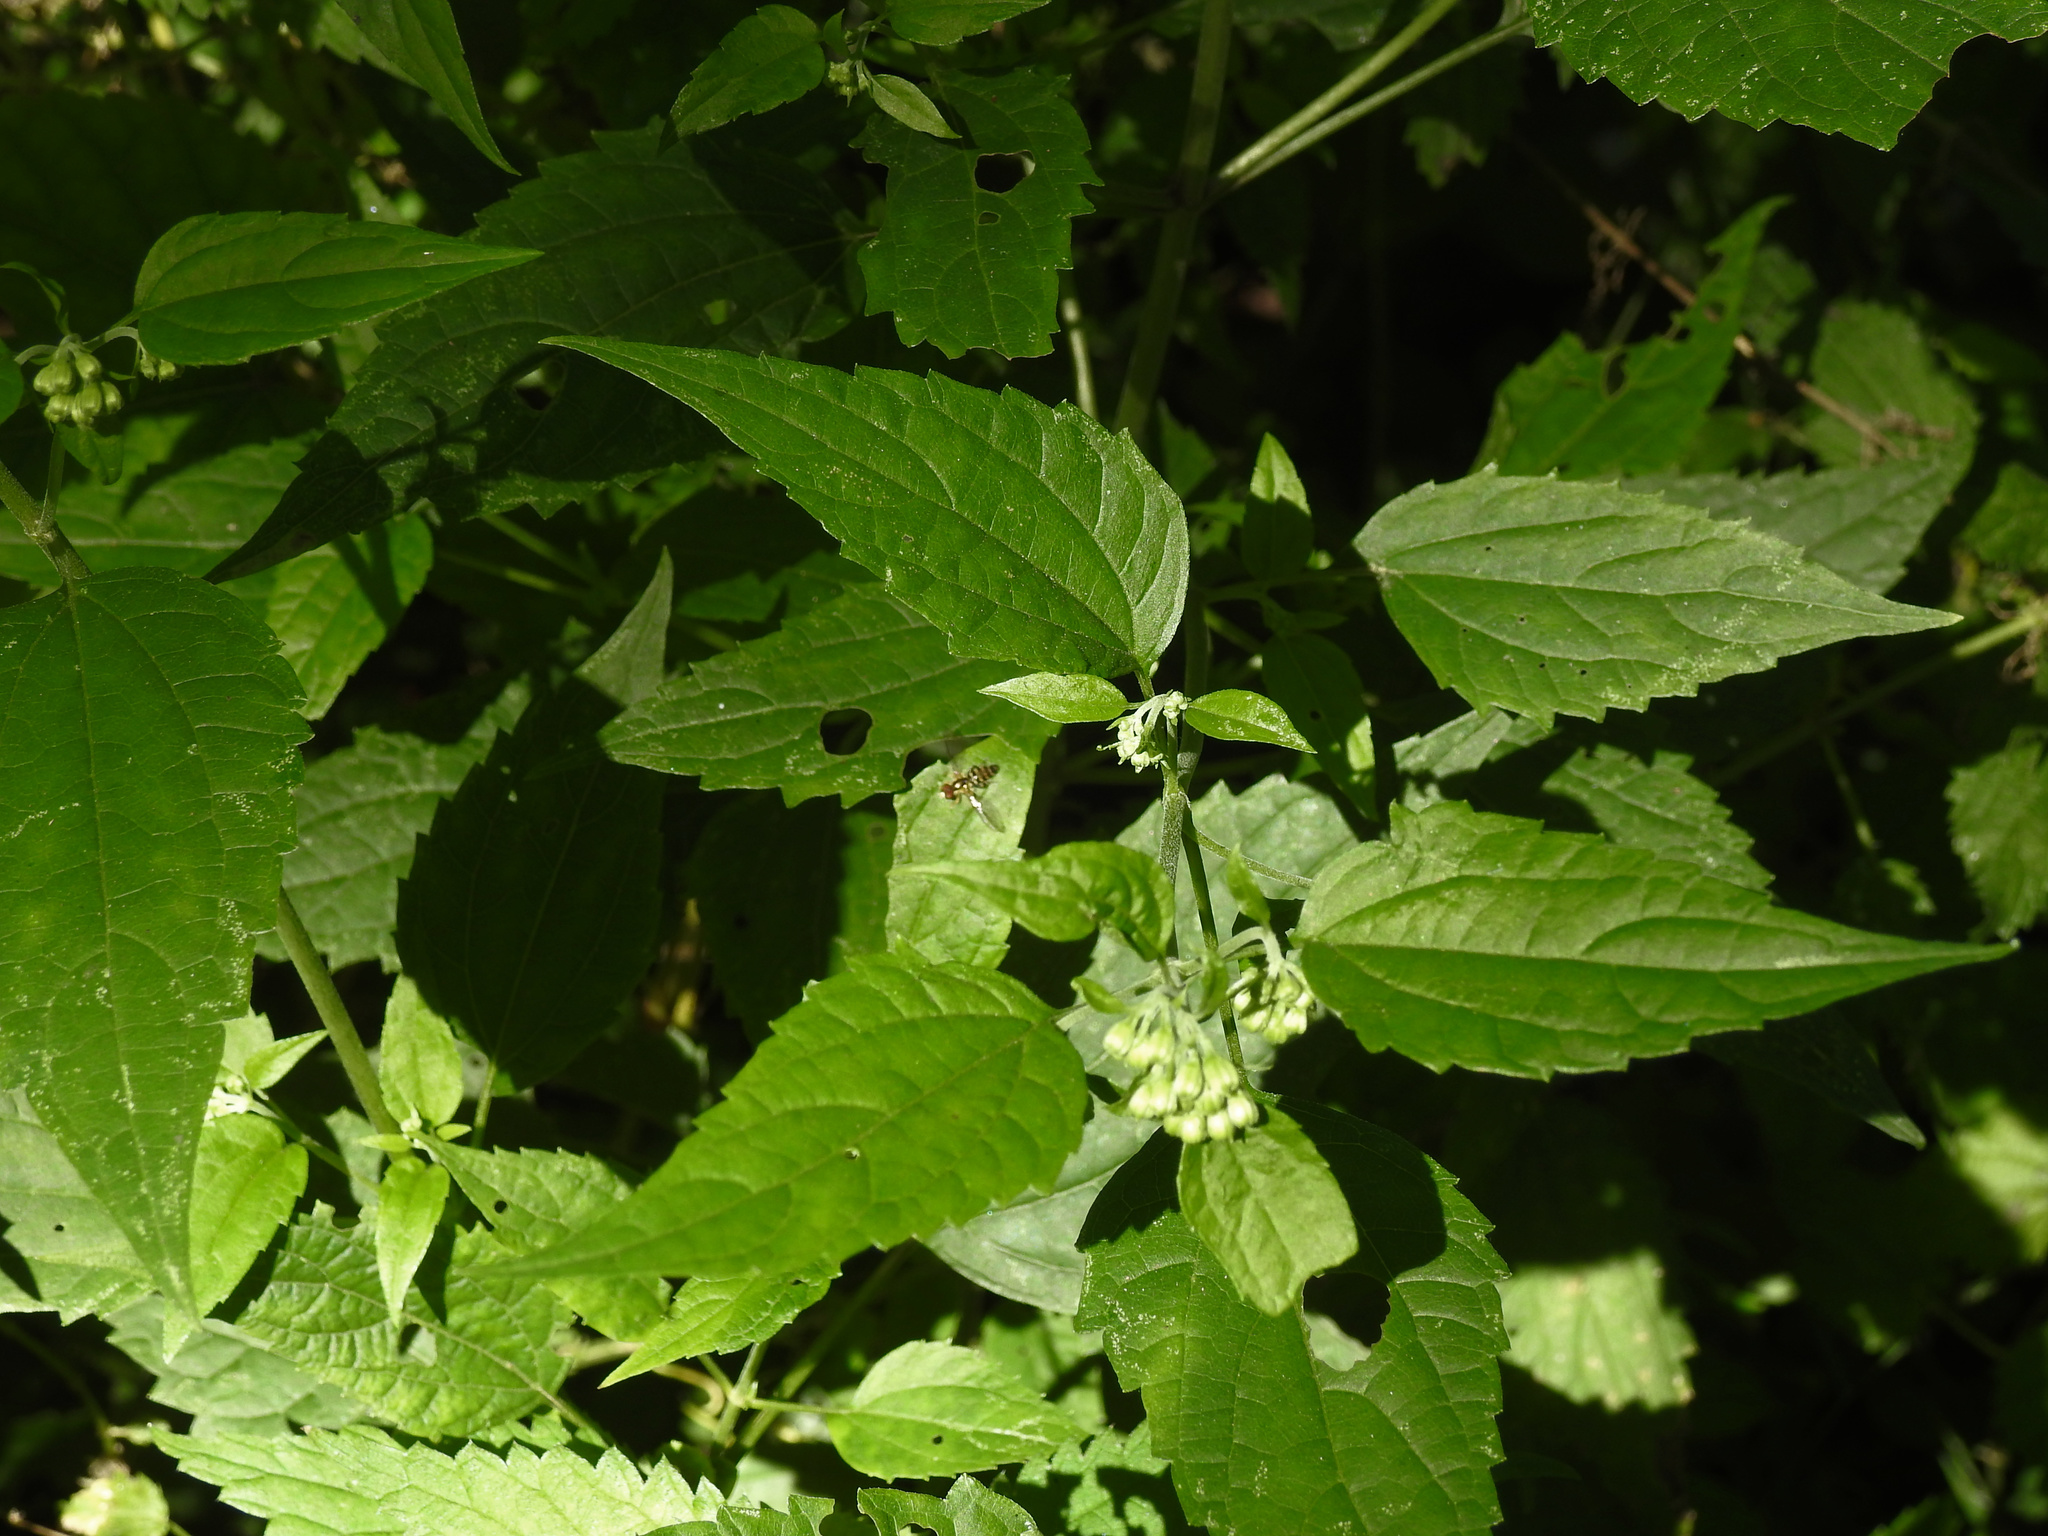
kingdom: Plantae
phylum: Tracheophyta
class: Magnoliopsida
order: Asterales
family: Asteraceae
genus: Ageratina
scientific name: Ageratina altissima
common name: White snakeroot
